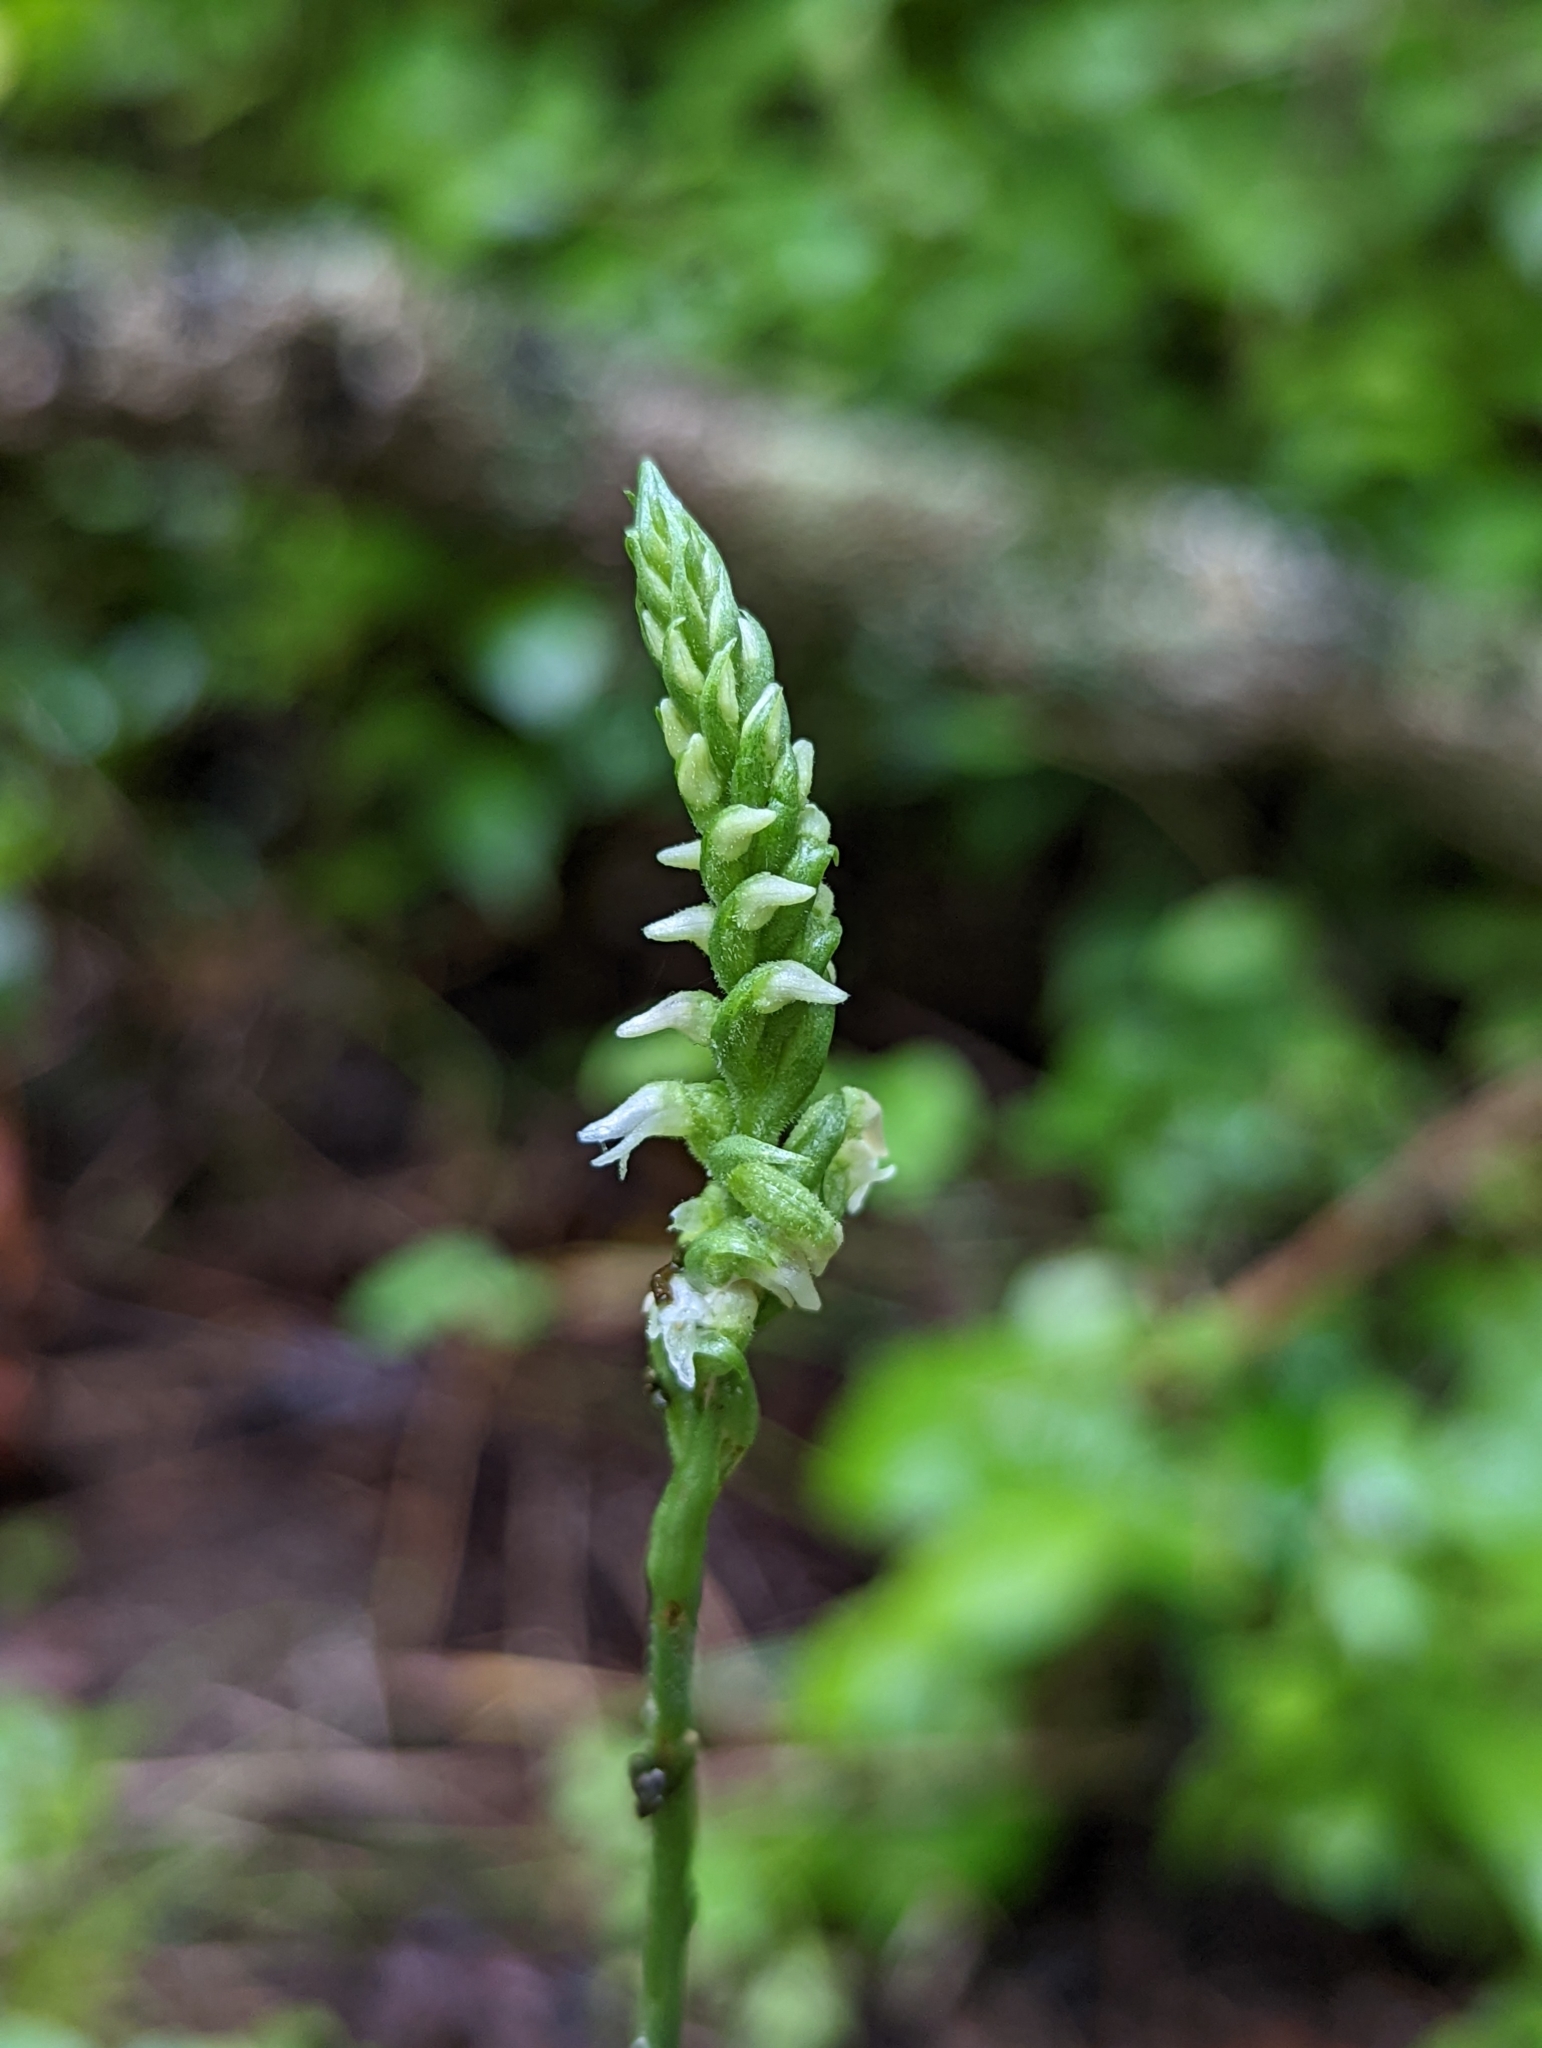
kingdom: Plantae
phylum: Tracheophyta
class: Liliopsida
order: Asparagales
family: Orchidaceae
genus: Spiranthes
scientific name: Spiranthes ovalis
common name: October ladies'-tresses
